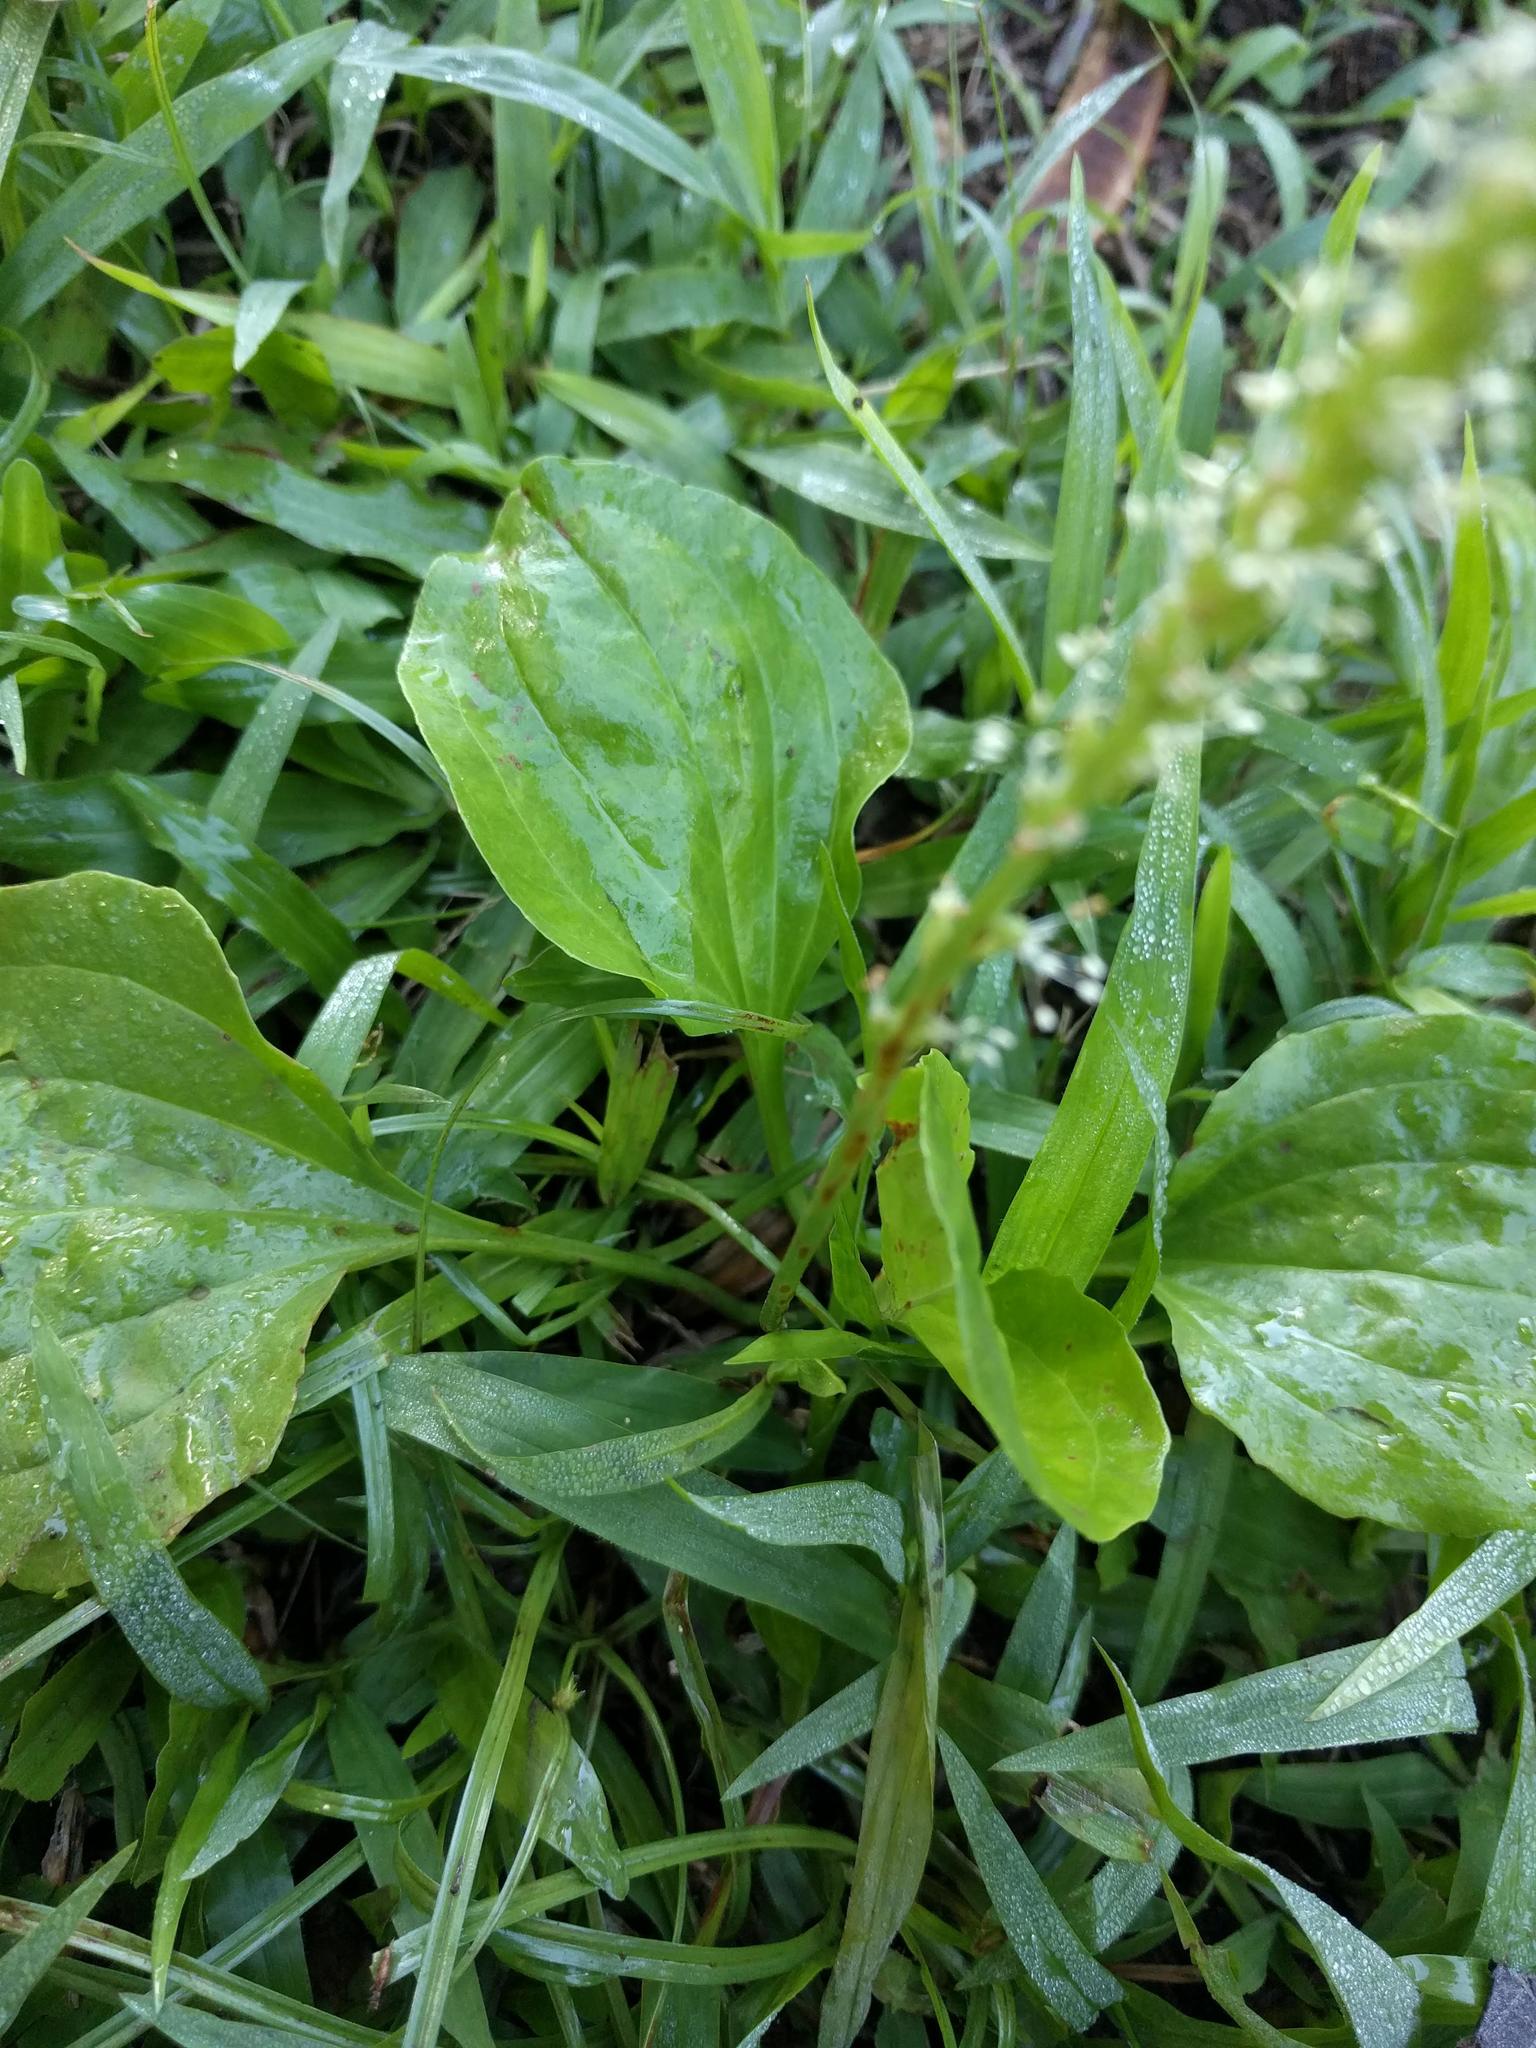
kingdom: Plantae
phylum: Tracheophyta
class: Magnoliopsida
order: Lamiales
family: Plantaginaceae
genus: Plantago
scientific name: Plantago major
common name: Common plantain
